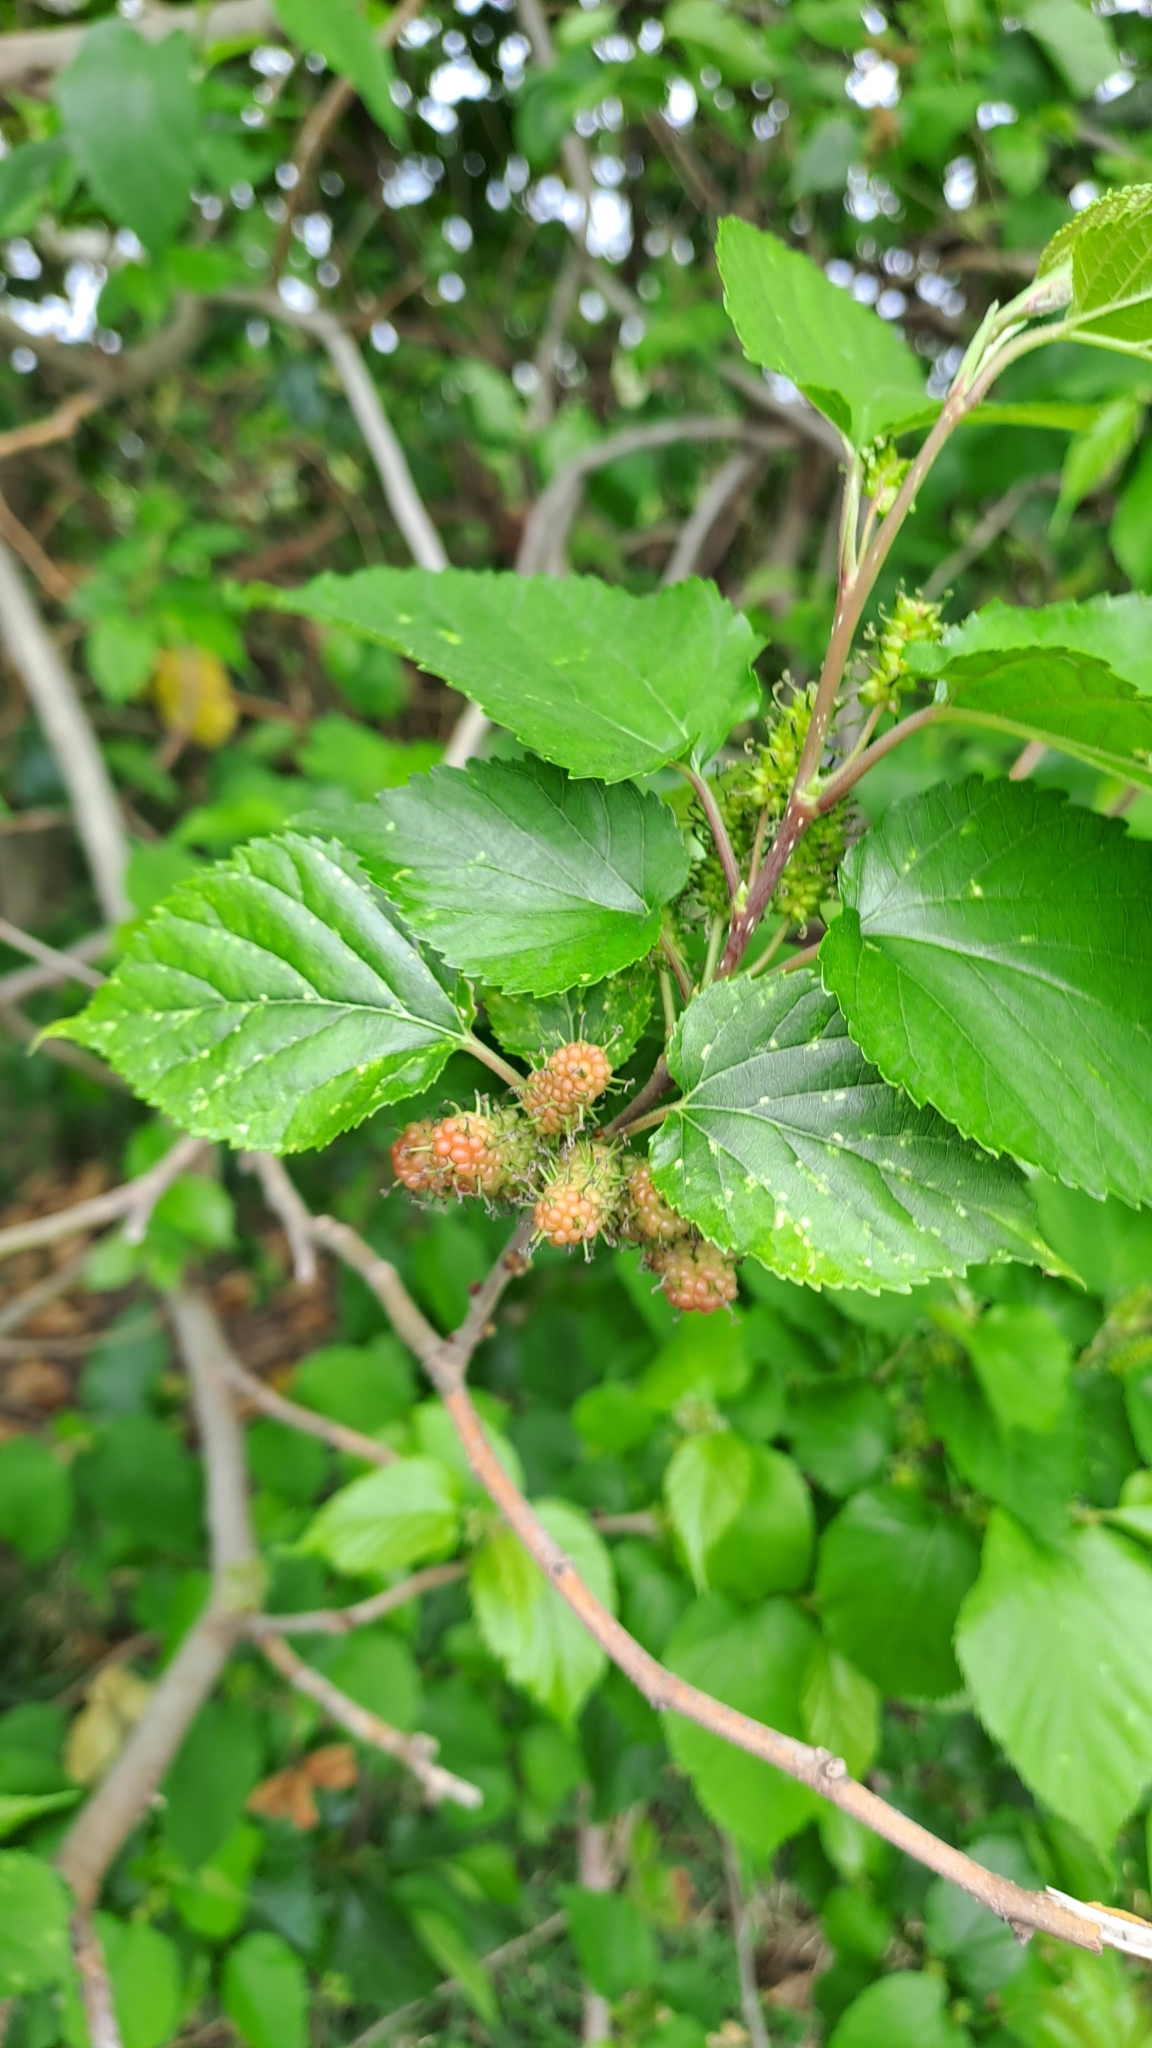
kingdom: Plantae
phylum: Tracheophyta
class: Magnoliopsida
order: Rosales
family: Moraceae
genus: Morus
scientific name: Morus indica
